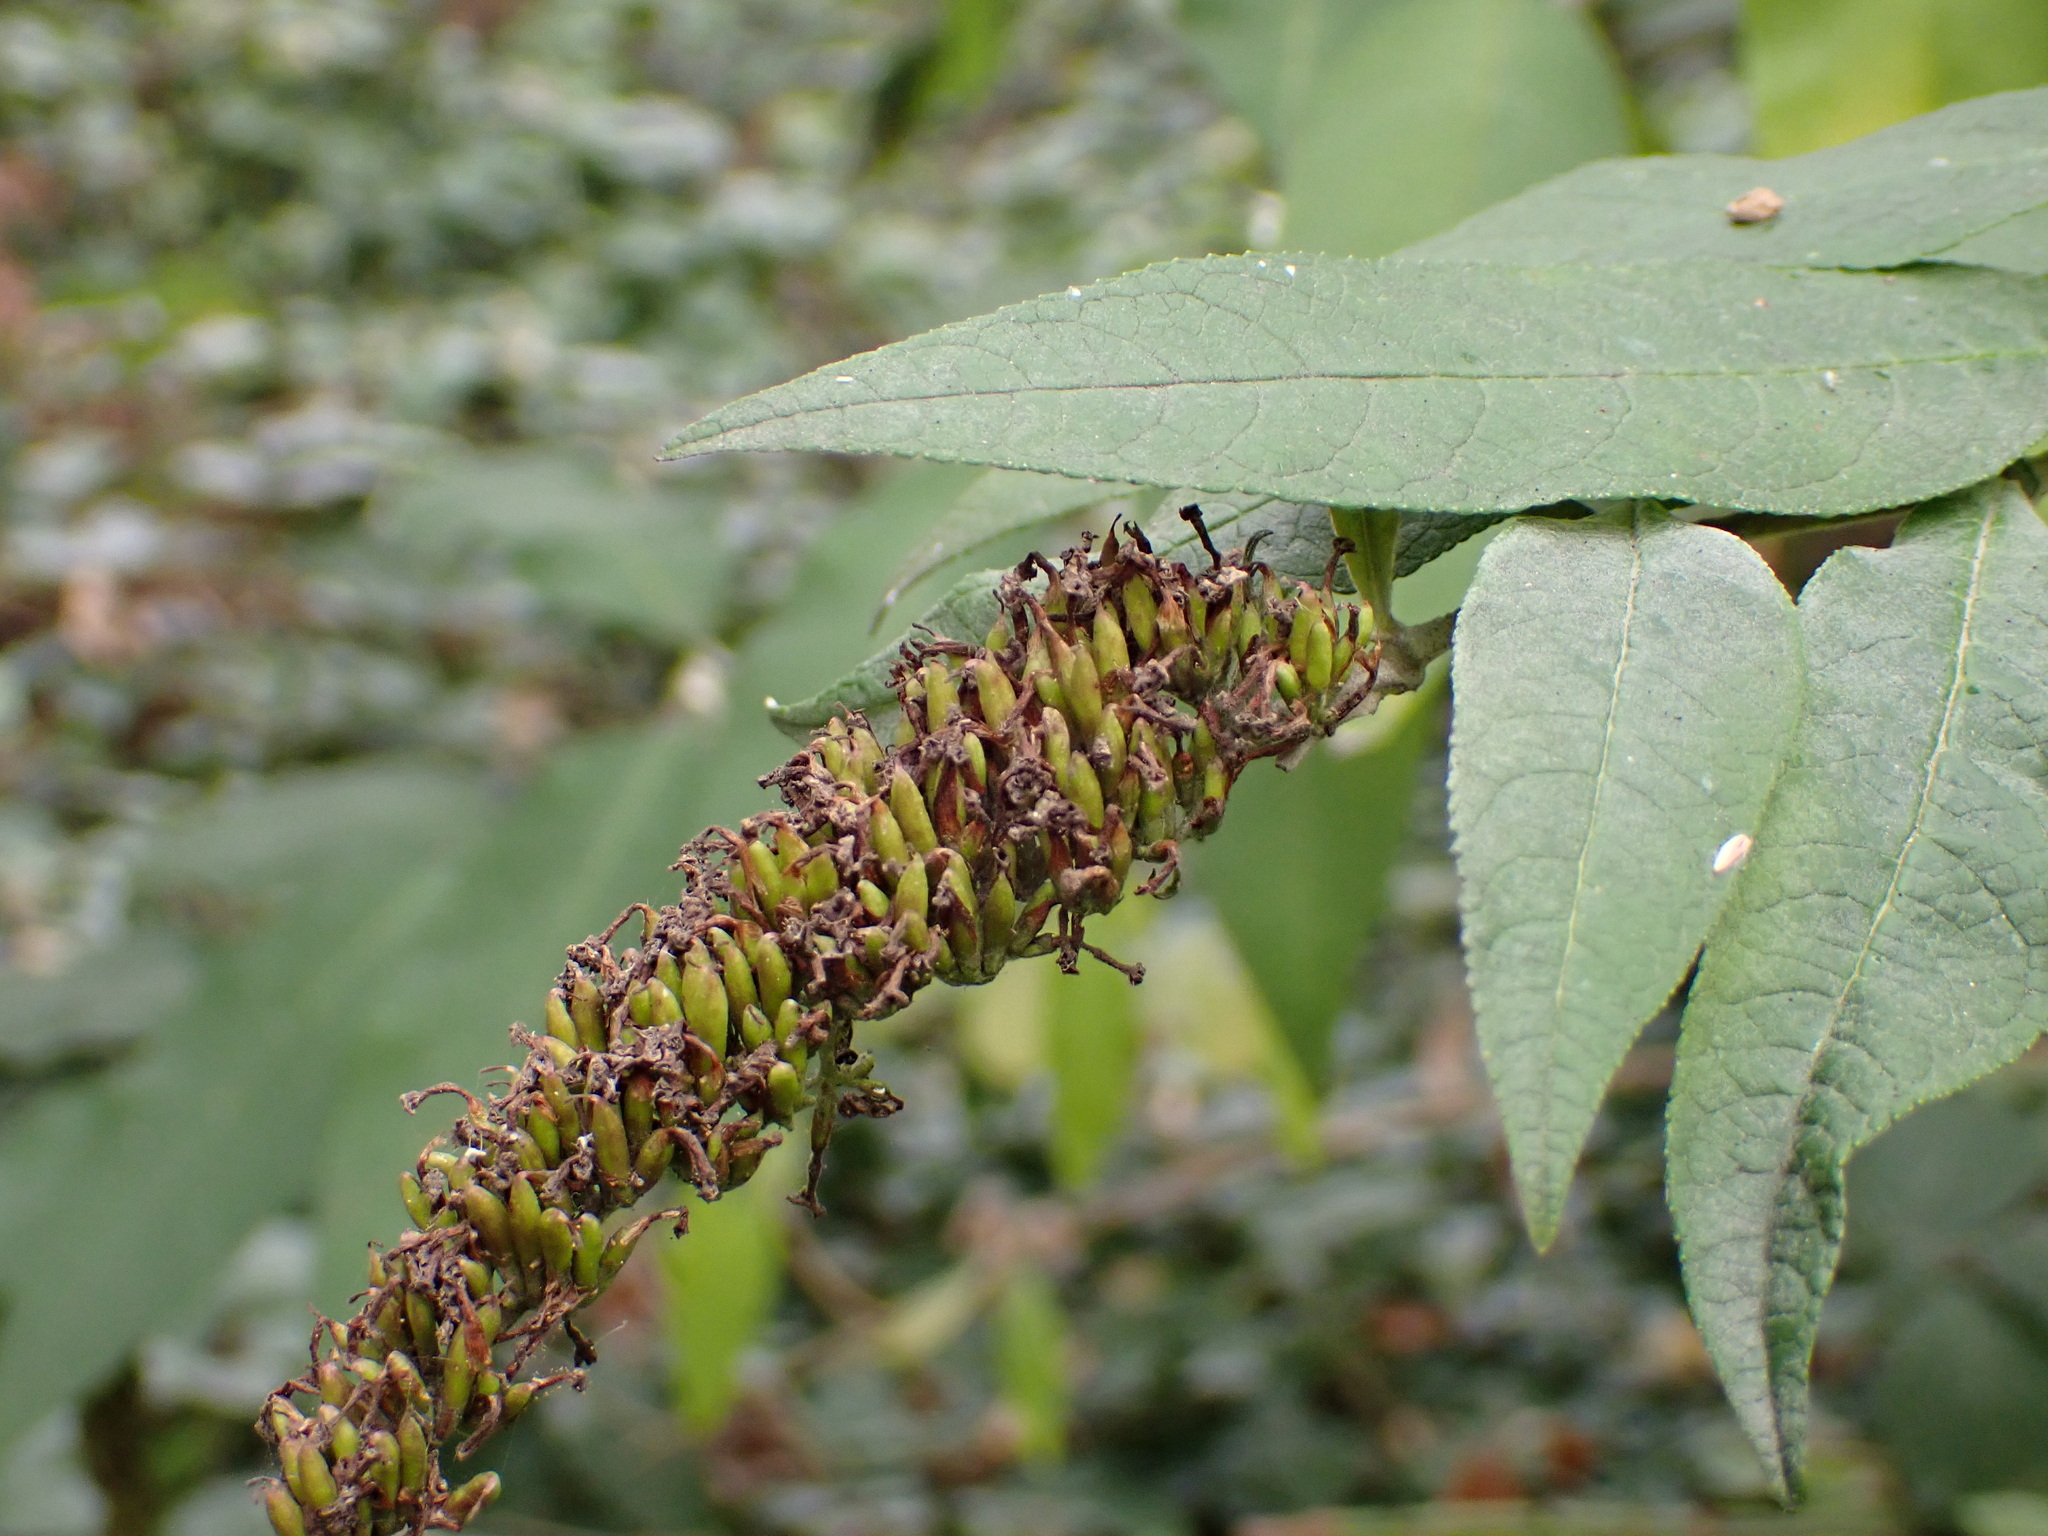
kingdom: Plantae
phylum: Tracheophyta
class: Magnoliopsida
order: Lamiales
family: Scrophulariaceae
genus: Buddleja
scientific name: Buddleja davidii
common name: Butterfly-bush
